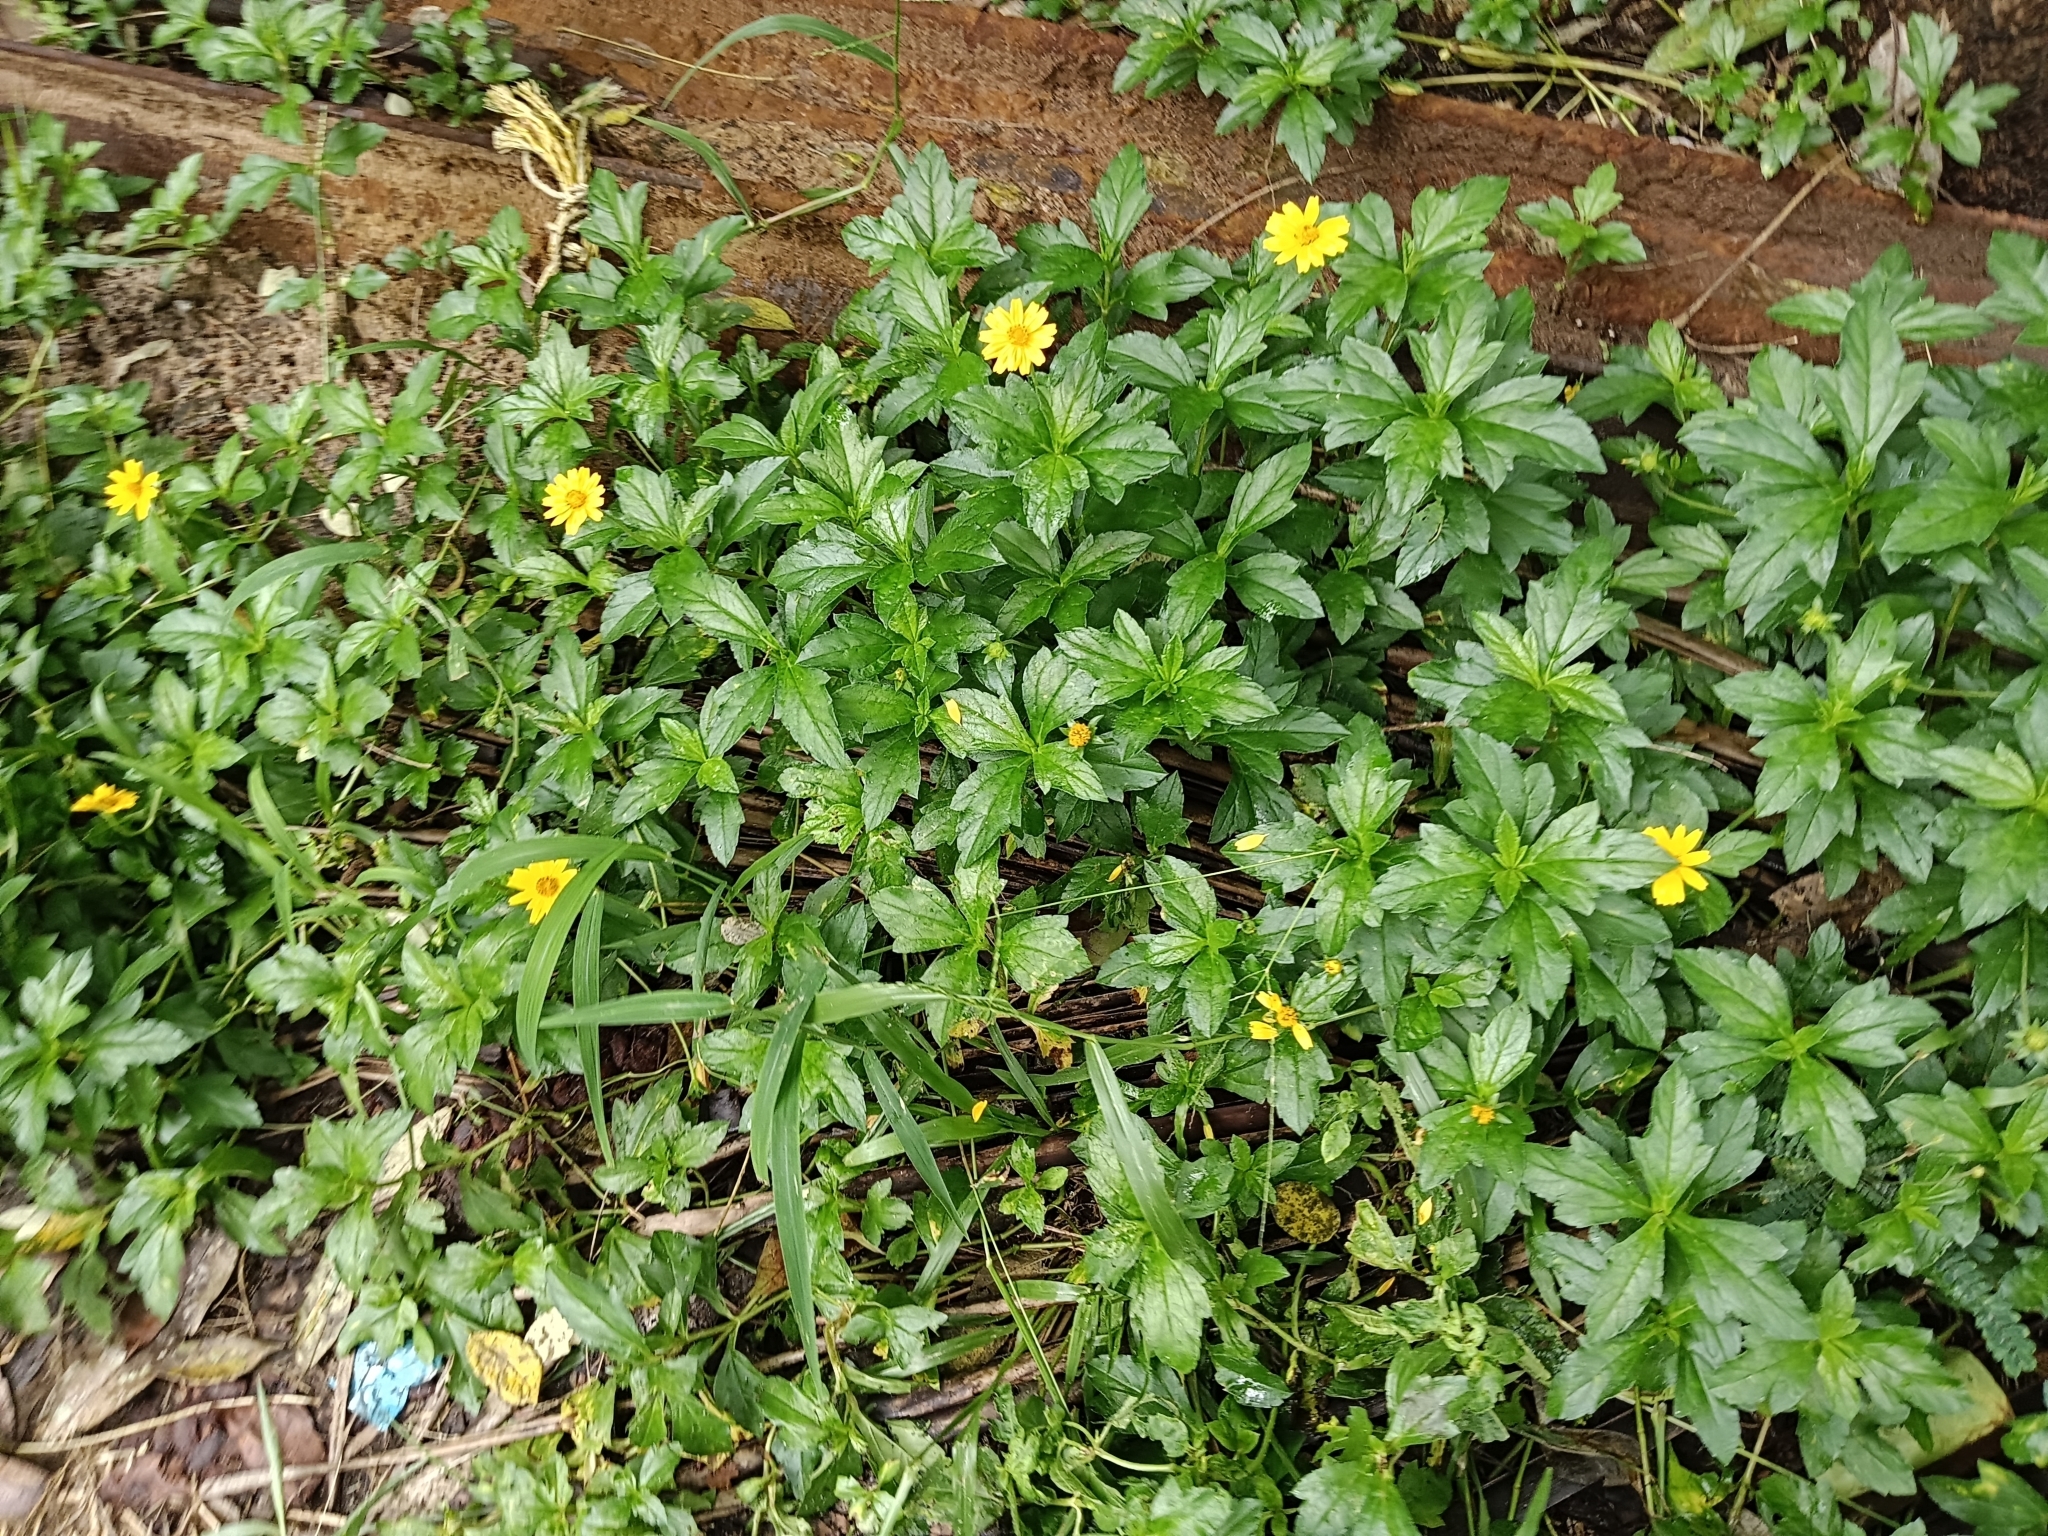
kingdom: Plantae
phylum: Tracheophyta
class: Magnoliopsida
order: Asterales
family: Asteraceae
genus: Sphagneticola
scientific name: Sphagneticola trilobata
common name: Bay biscayne creeping-oxeye
